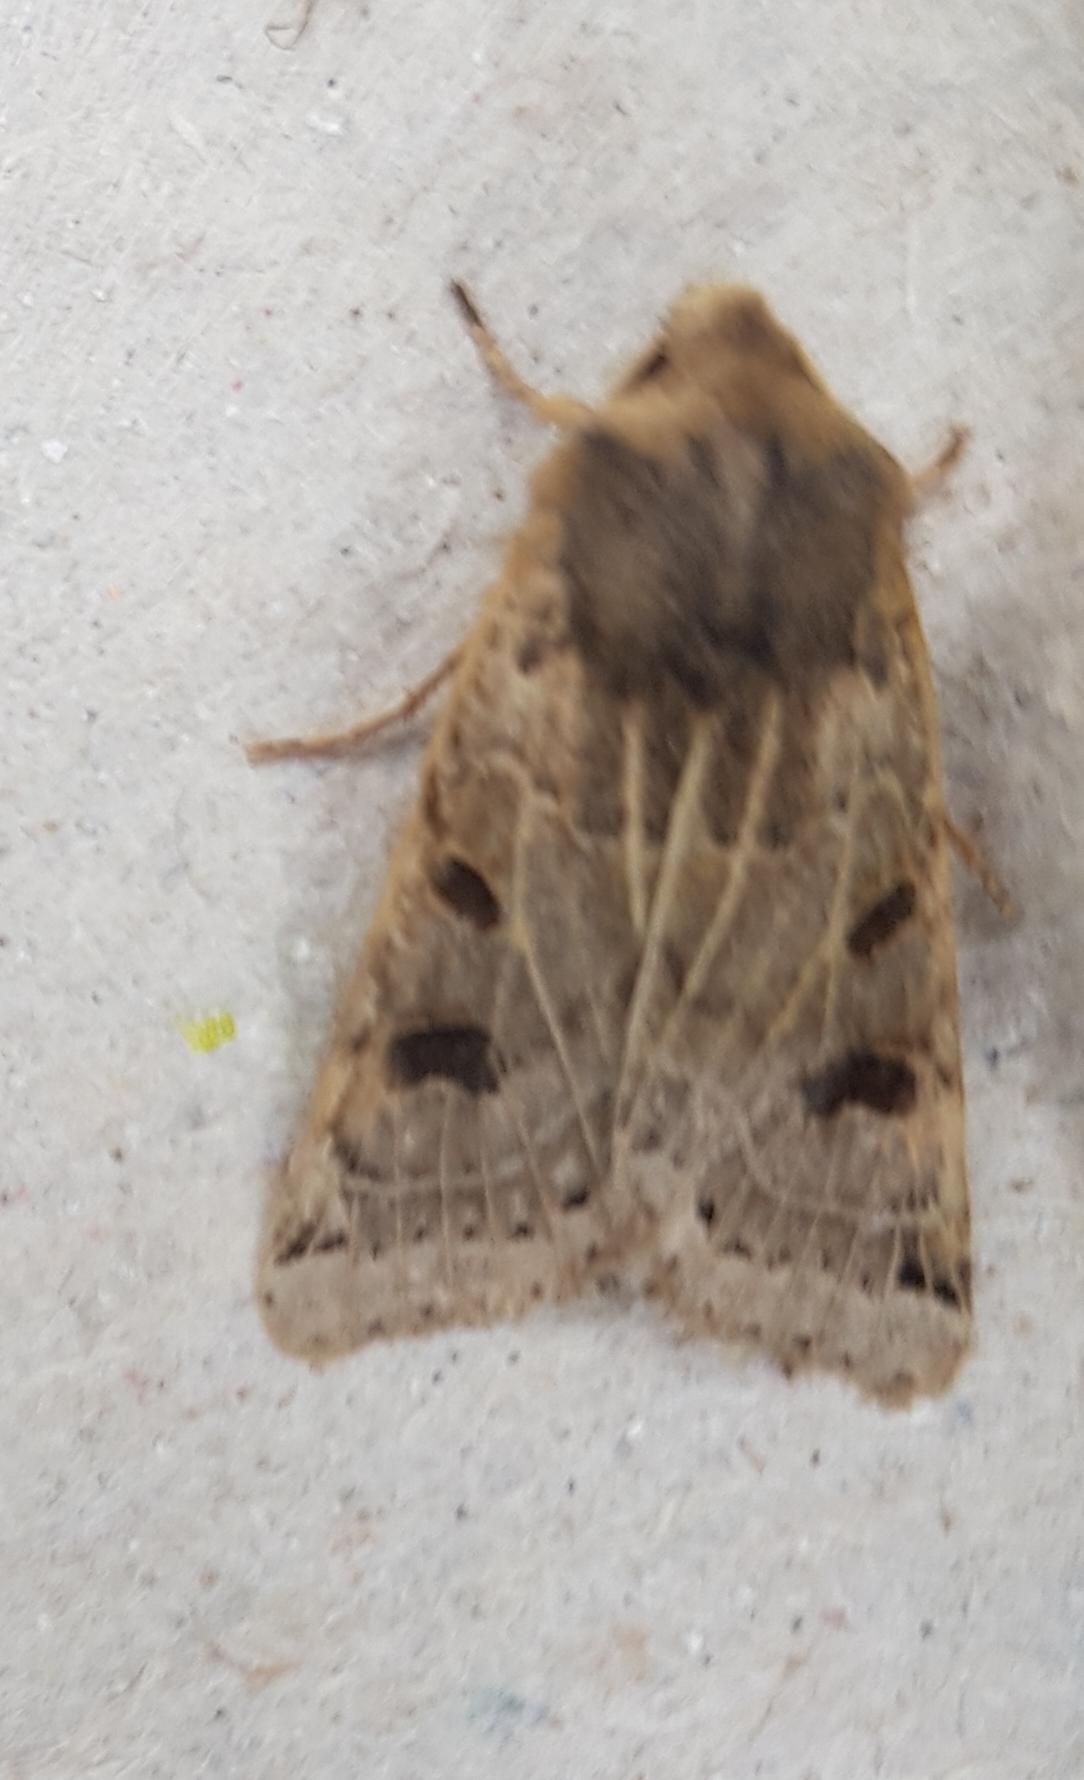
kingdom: Animalia
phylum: Arthropoda
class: Insecta
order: Lepidoptera
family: Noctuidae
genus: Agrochola
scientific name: Agrochola lunosa
